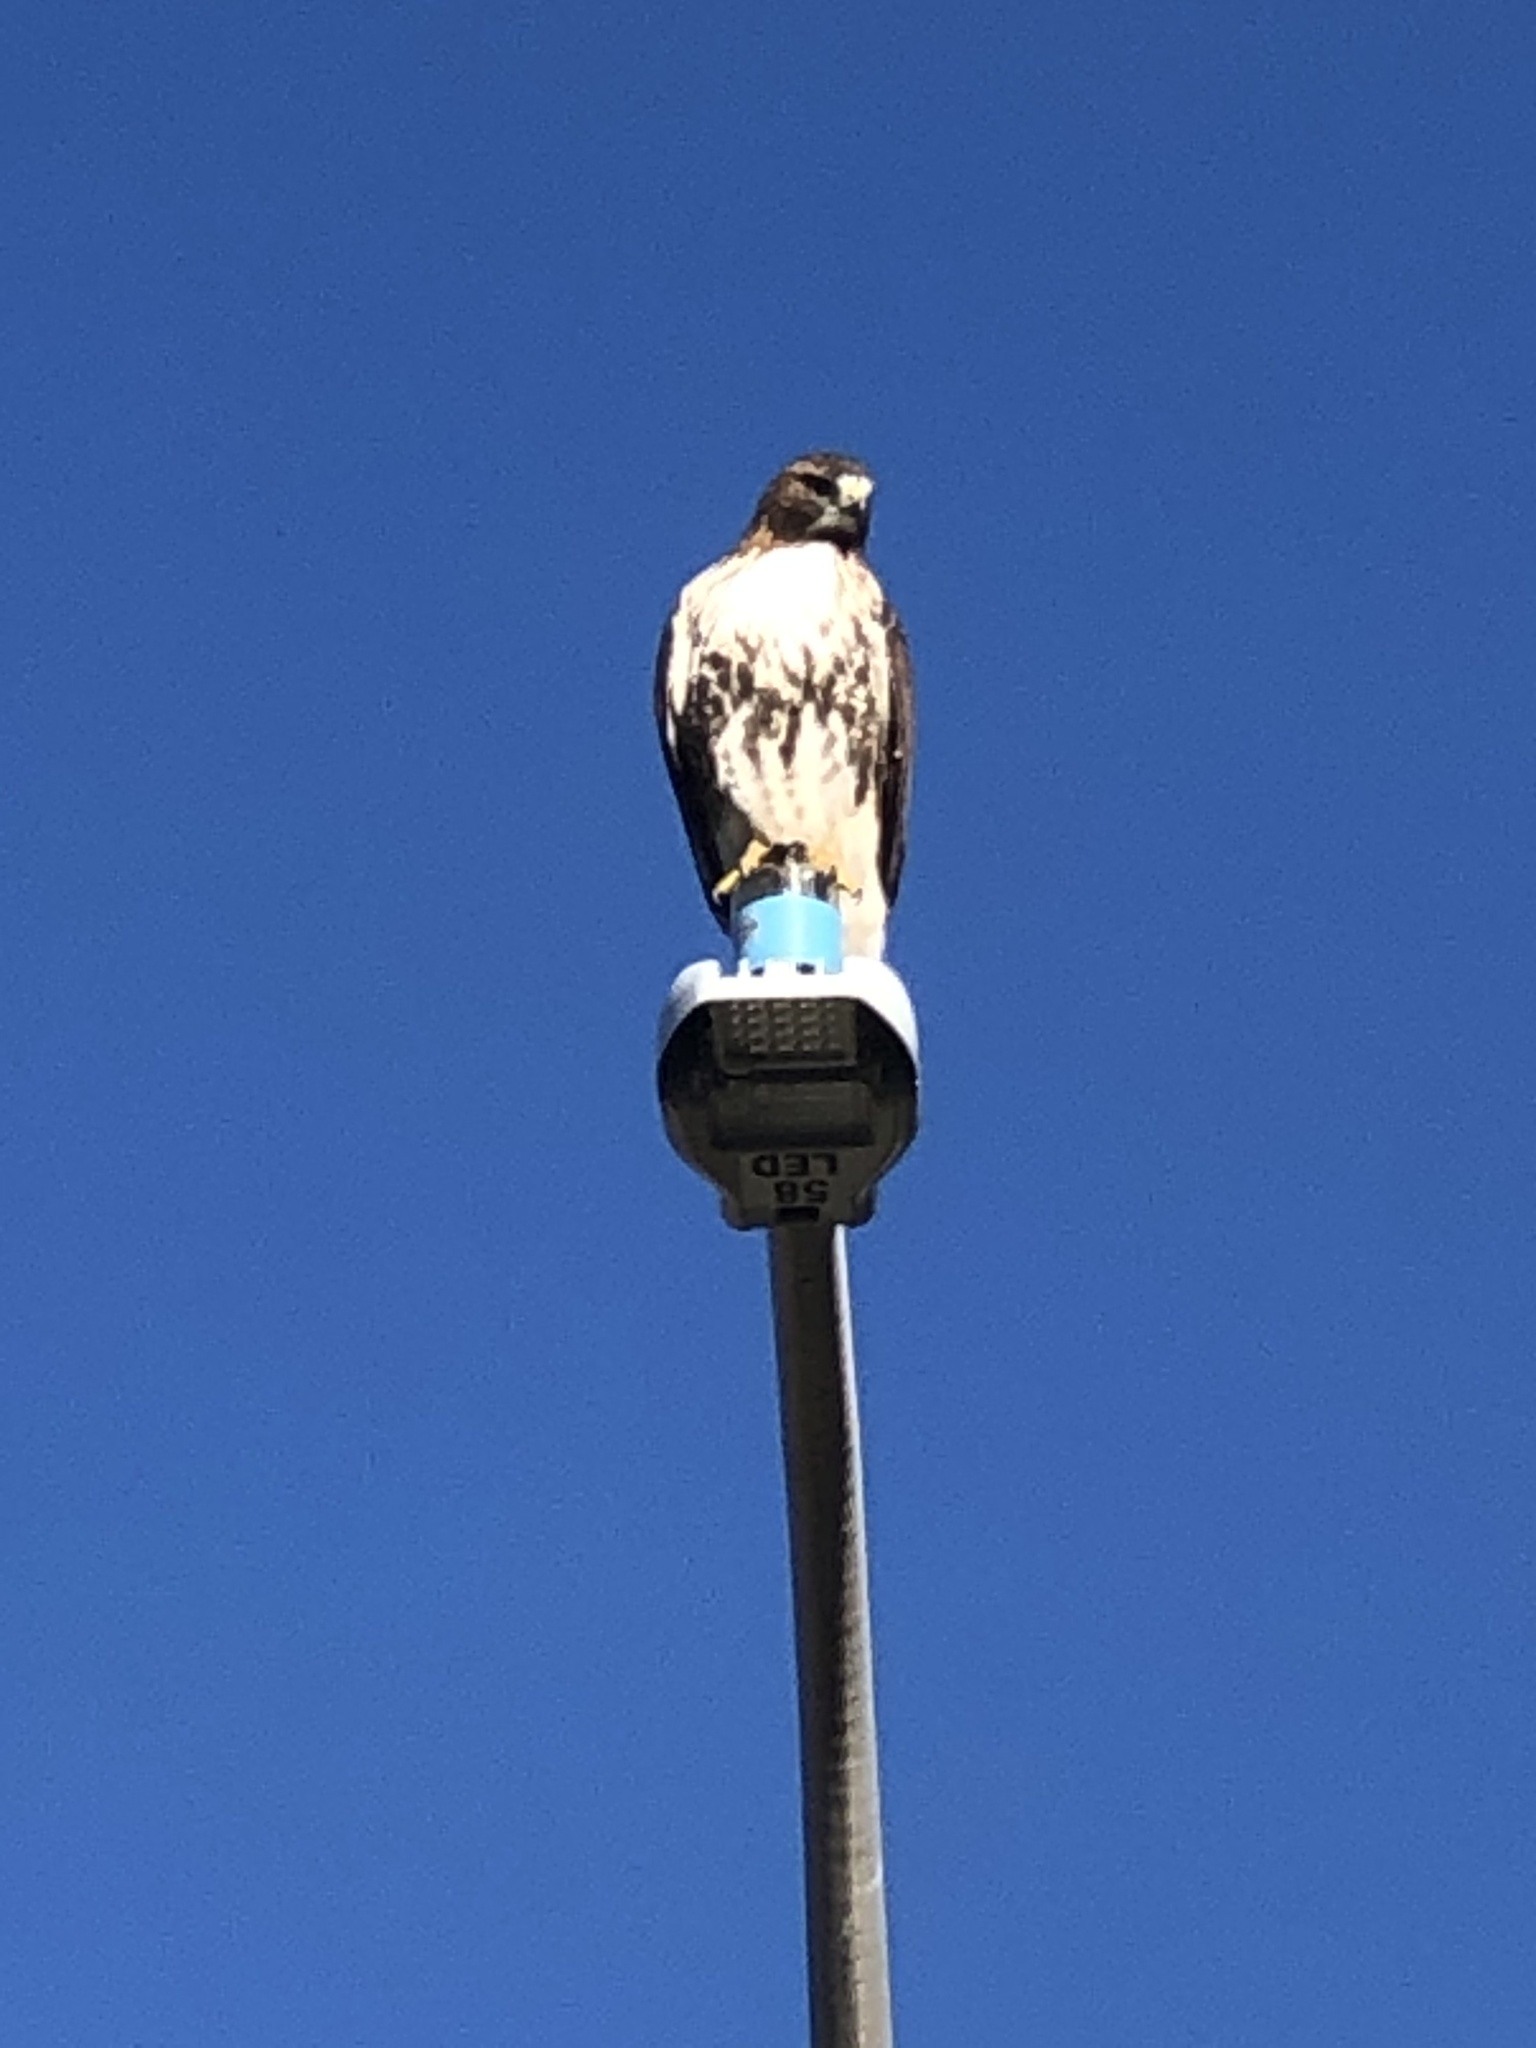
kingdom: Animalia
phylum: Chordata
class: Aves
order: Accipitriformes
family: Accipitridae
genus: Buteo
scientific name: Buteo jamaicensis
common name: Red-tailed hawk
